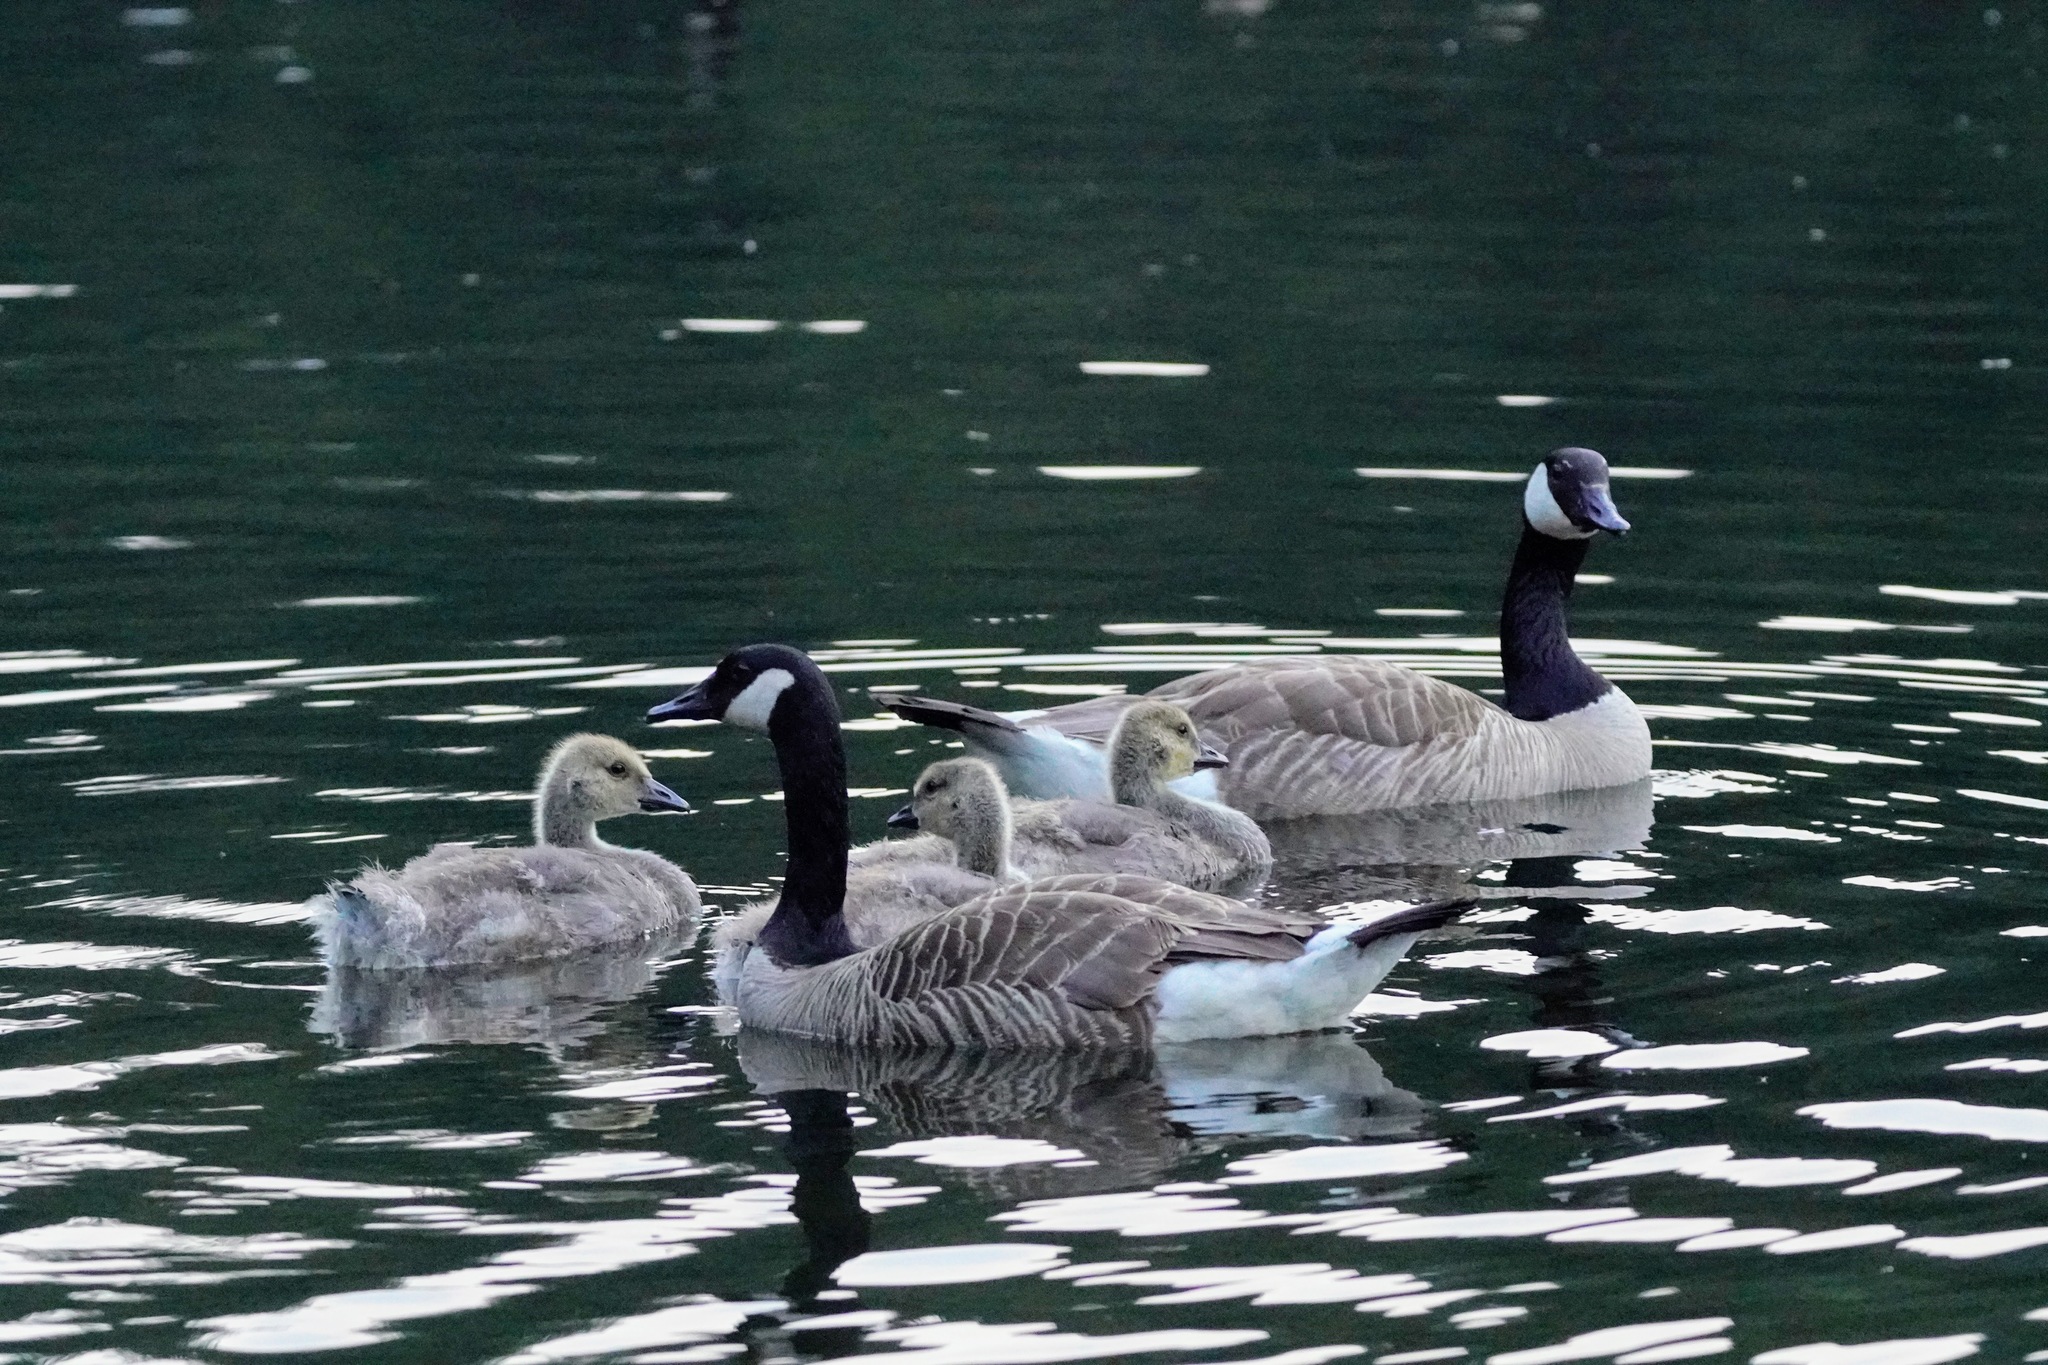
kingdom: Animalia
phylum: Chordata
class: Aves
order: Anseriformes
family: Anatidae
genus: Branta
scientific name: Branta canadensis
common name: Canada goose
